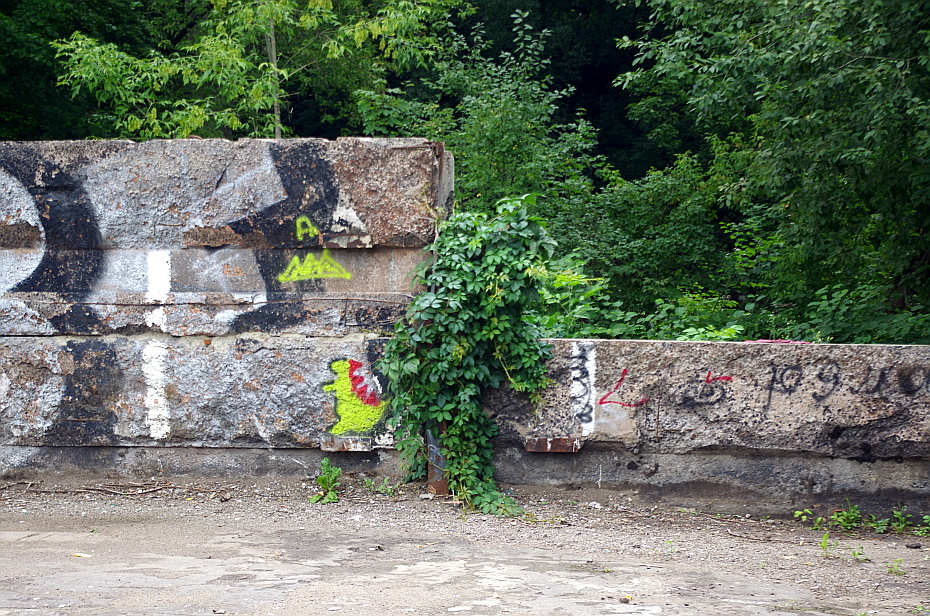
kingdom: Plantae
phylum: Tracheophyta
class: Magnoliopsida
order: Vitales
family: Vitaceae
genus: Parthenocissus
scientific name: Parthenocissus inserta
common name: False virginia-creeper
